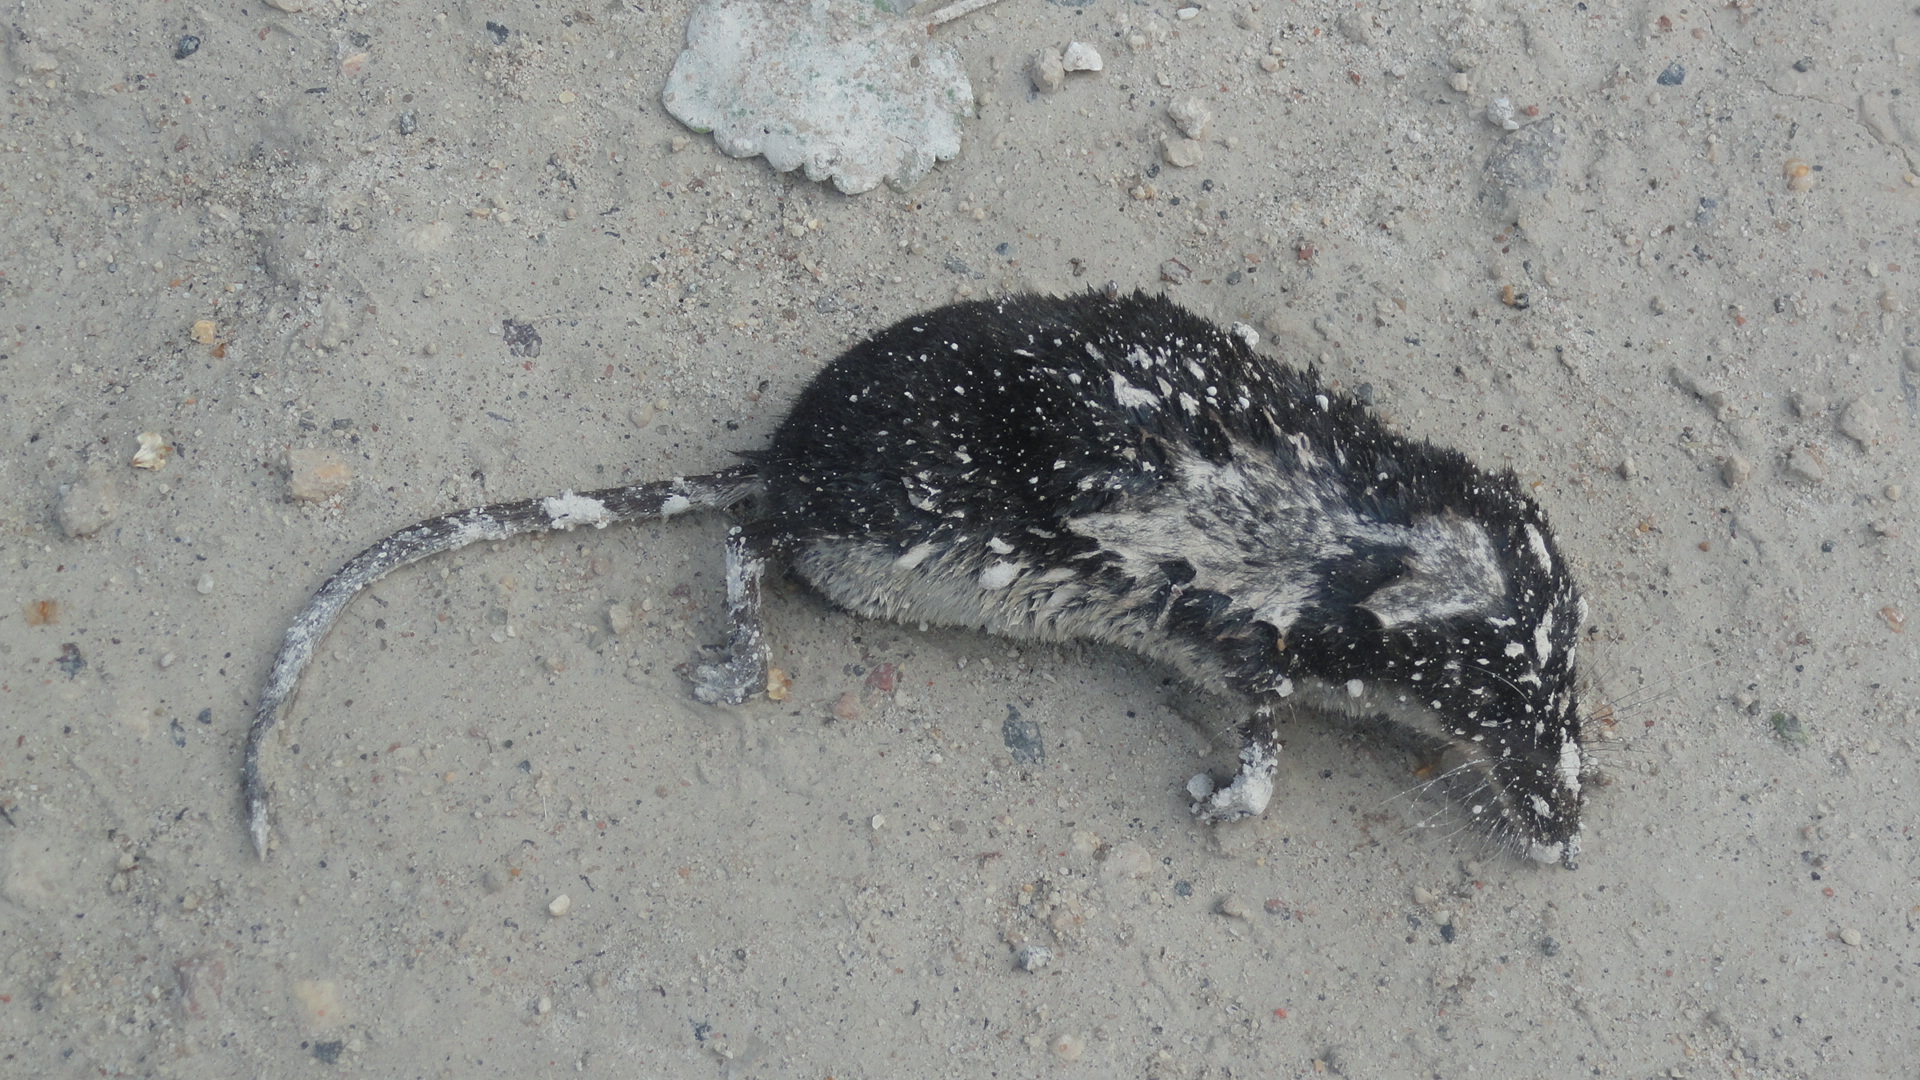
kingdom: Animalia
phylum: Chordata
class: Mammalia
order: Soricomorpha
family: Soricidae
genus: Neomys
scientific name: Neomys fodiens
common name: Eurasian water shrew
